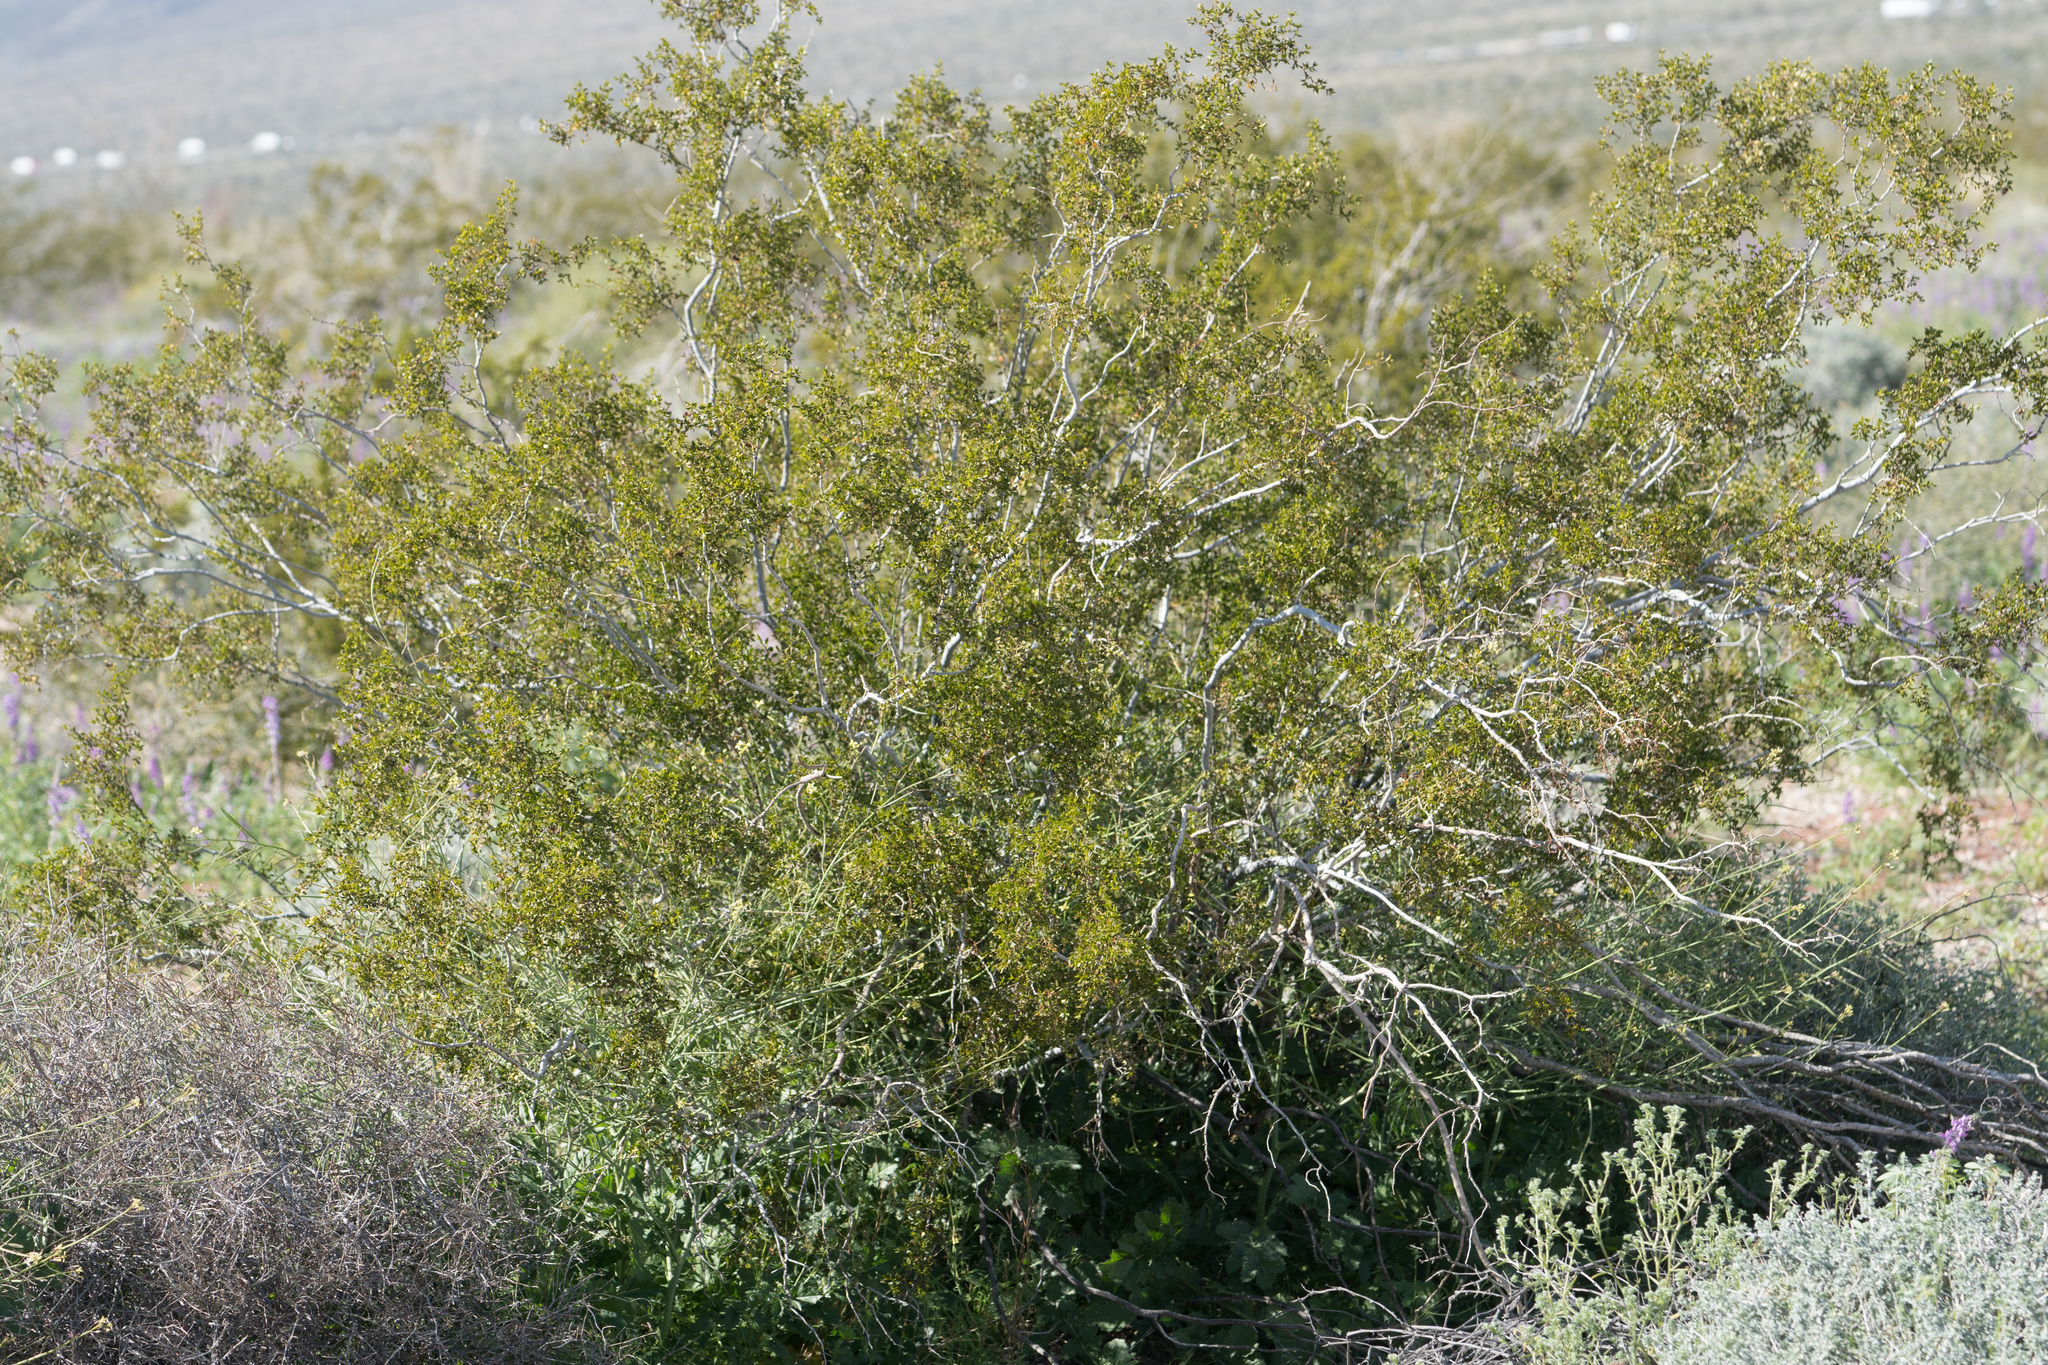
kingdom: Plantae
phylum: Tracheophyta
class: Magnoliopsida
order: Zygophyllales
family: Zygophyllaceae
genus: Larrea
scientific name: Larrea tridentata
